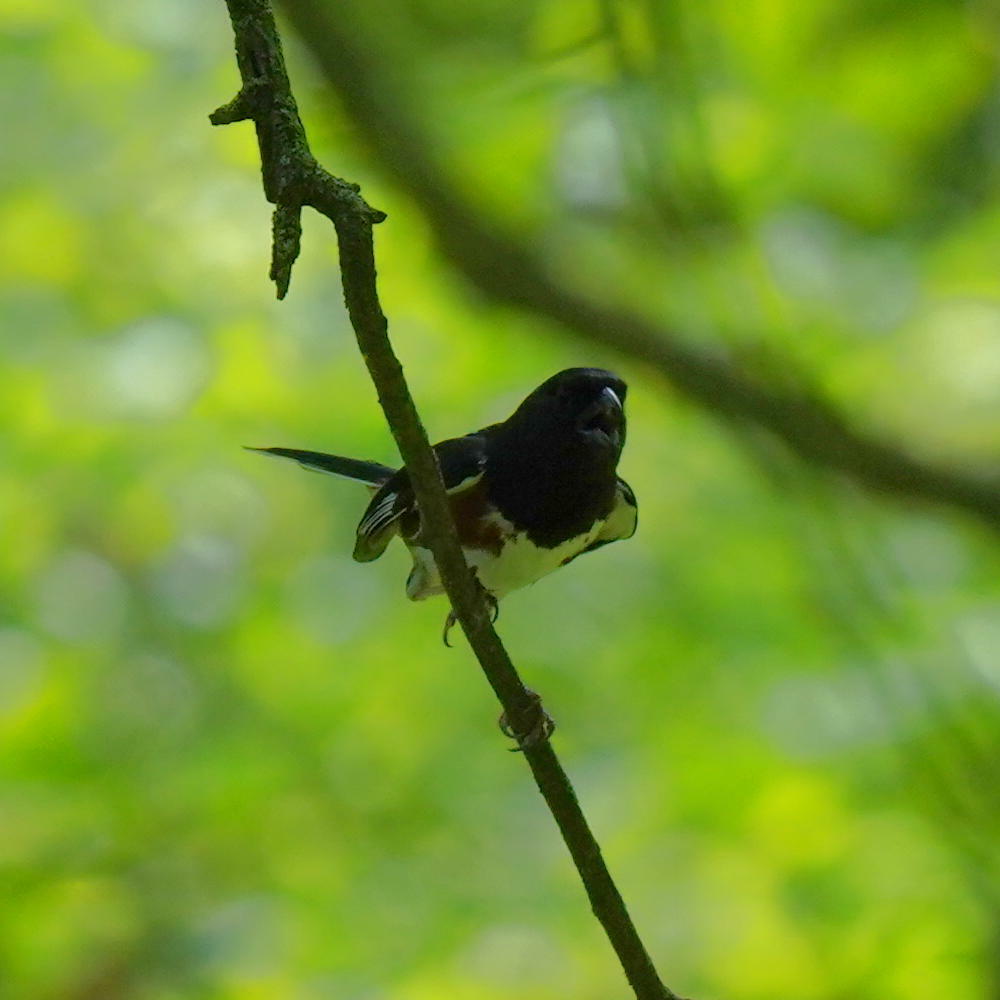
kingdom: Animalia
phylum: Chordata
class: Aves
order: Passeriformes
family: Passerellidae
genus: Pipilo
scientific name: Pipilo erythrophthalmus
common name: Eastern towhee
